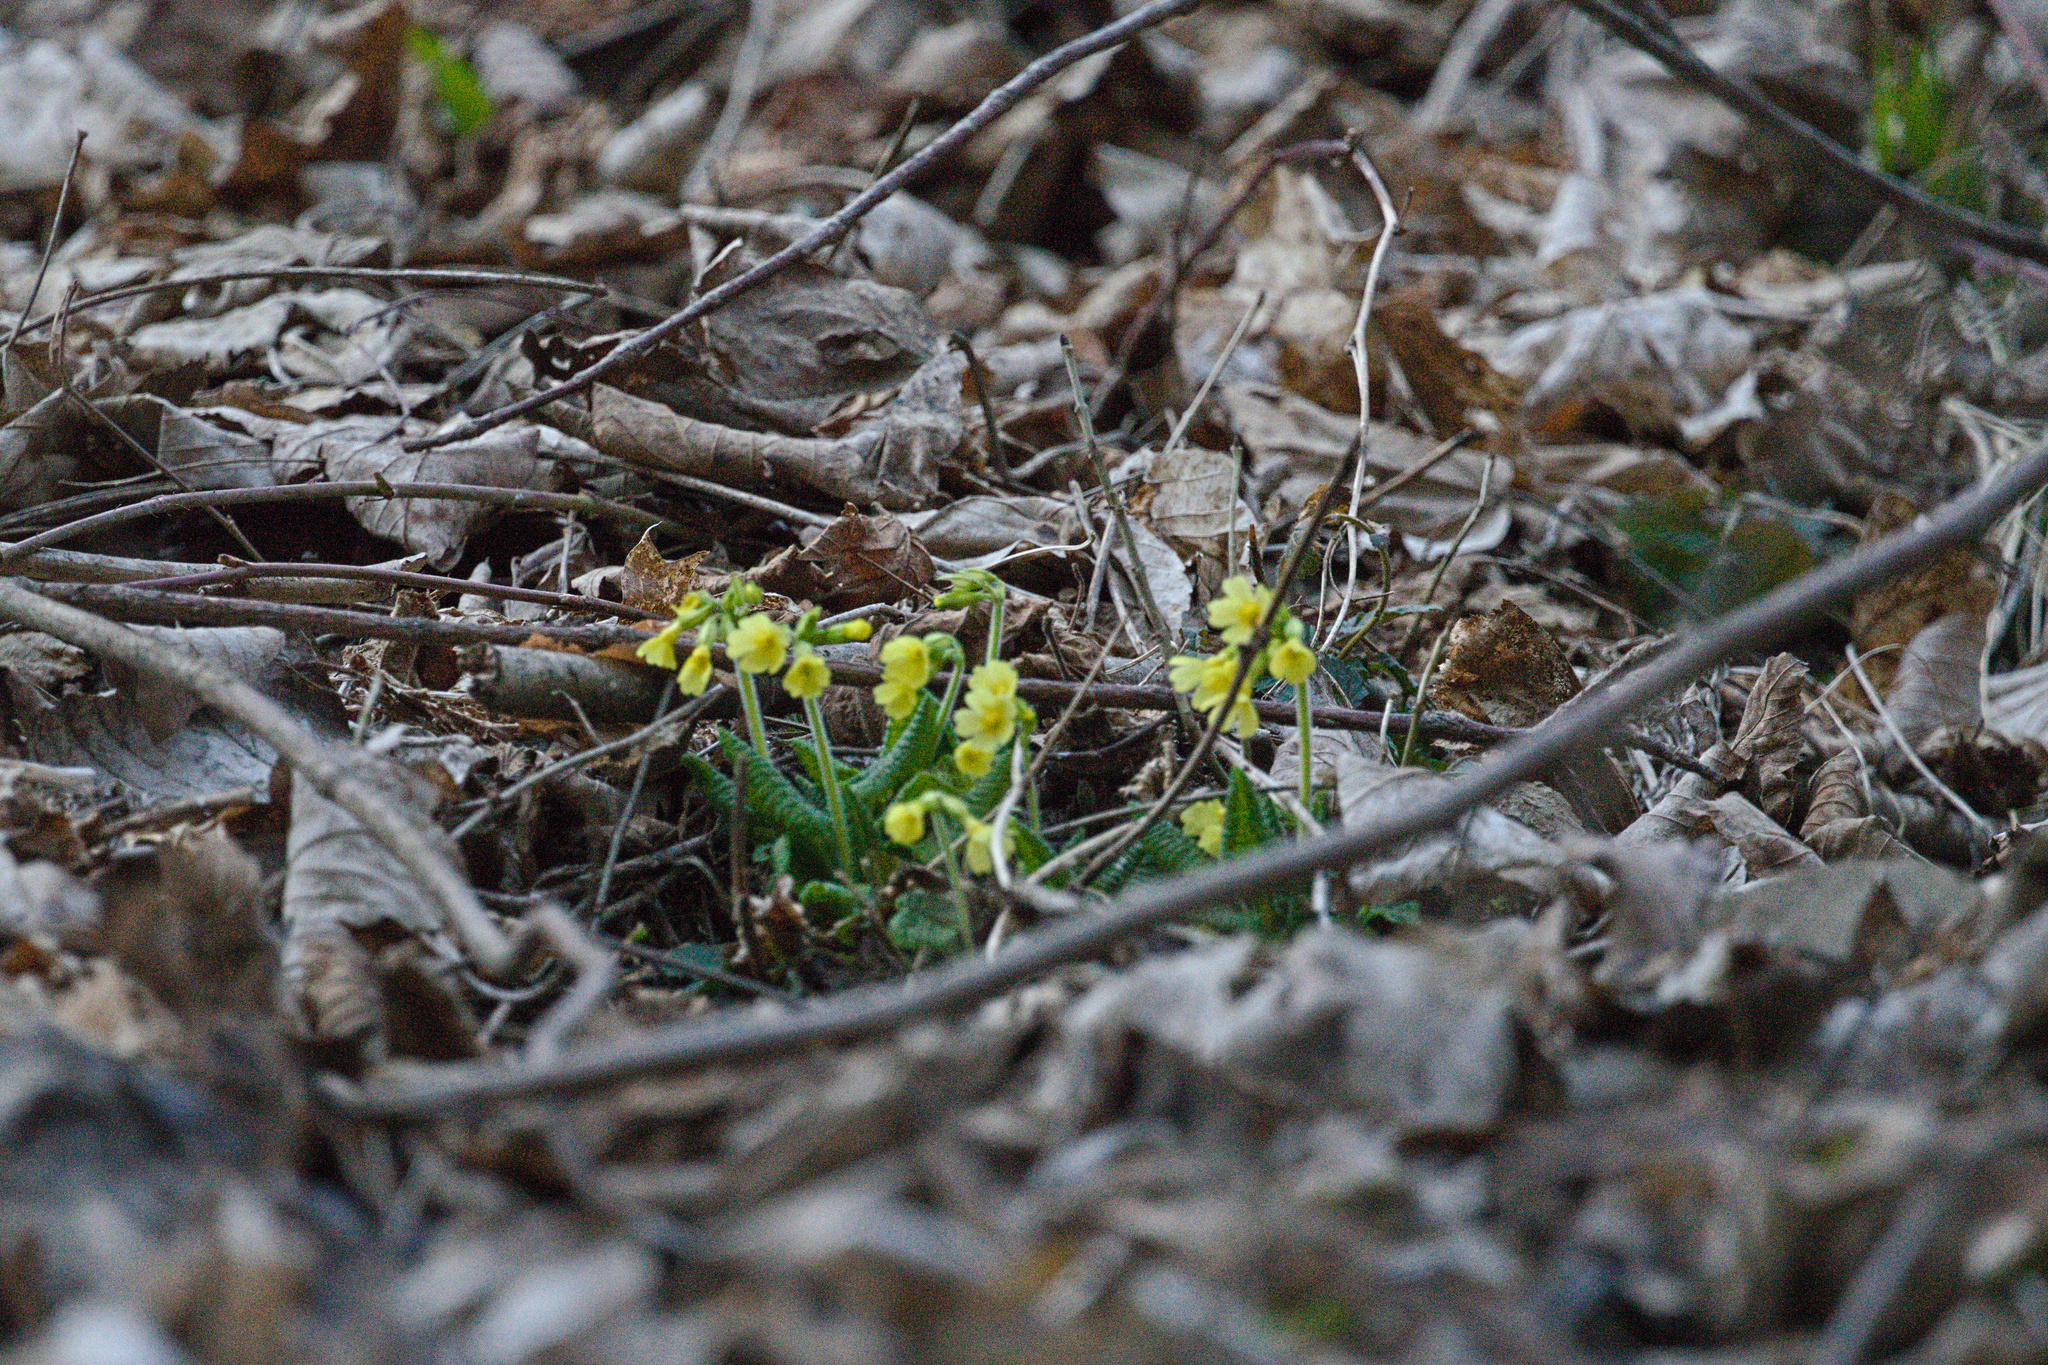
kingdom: Plantae
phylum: Tracheophyta
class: Magnoliopsida
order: Ericales
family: Primulaceae
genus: Primula
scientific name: Primula elatior
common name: Oxlip
